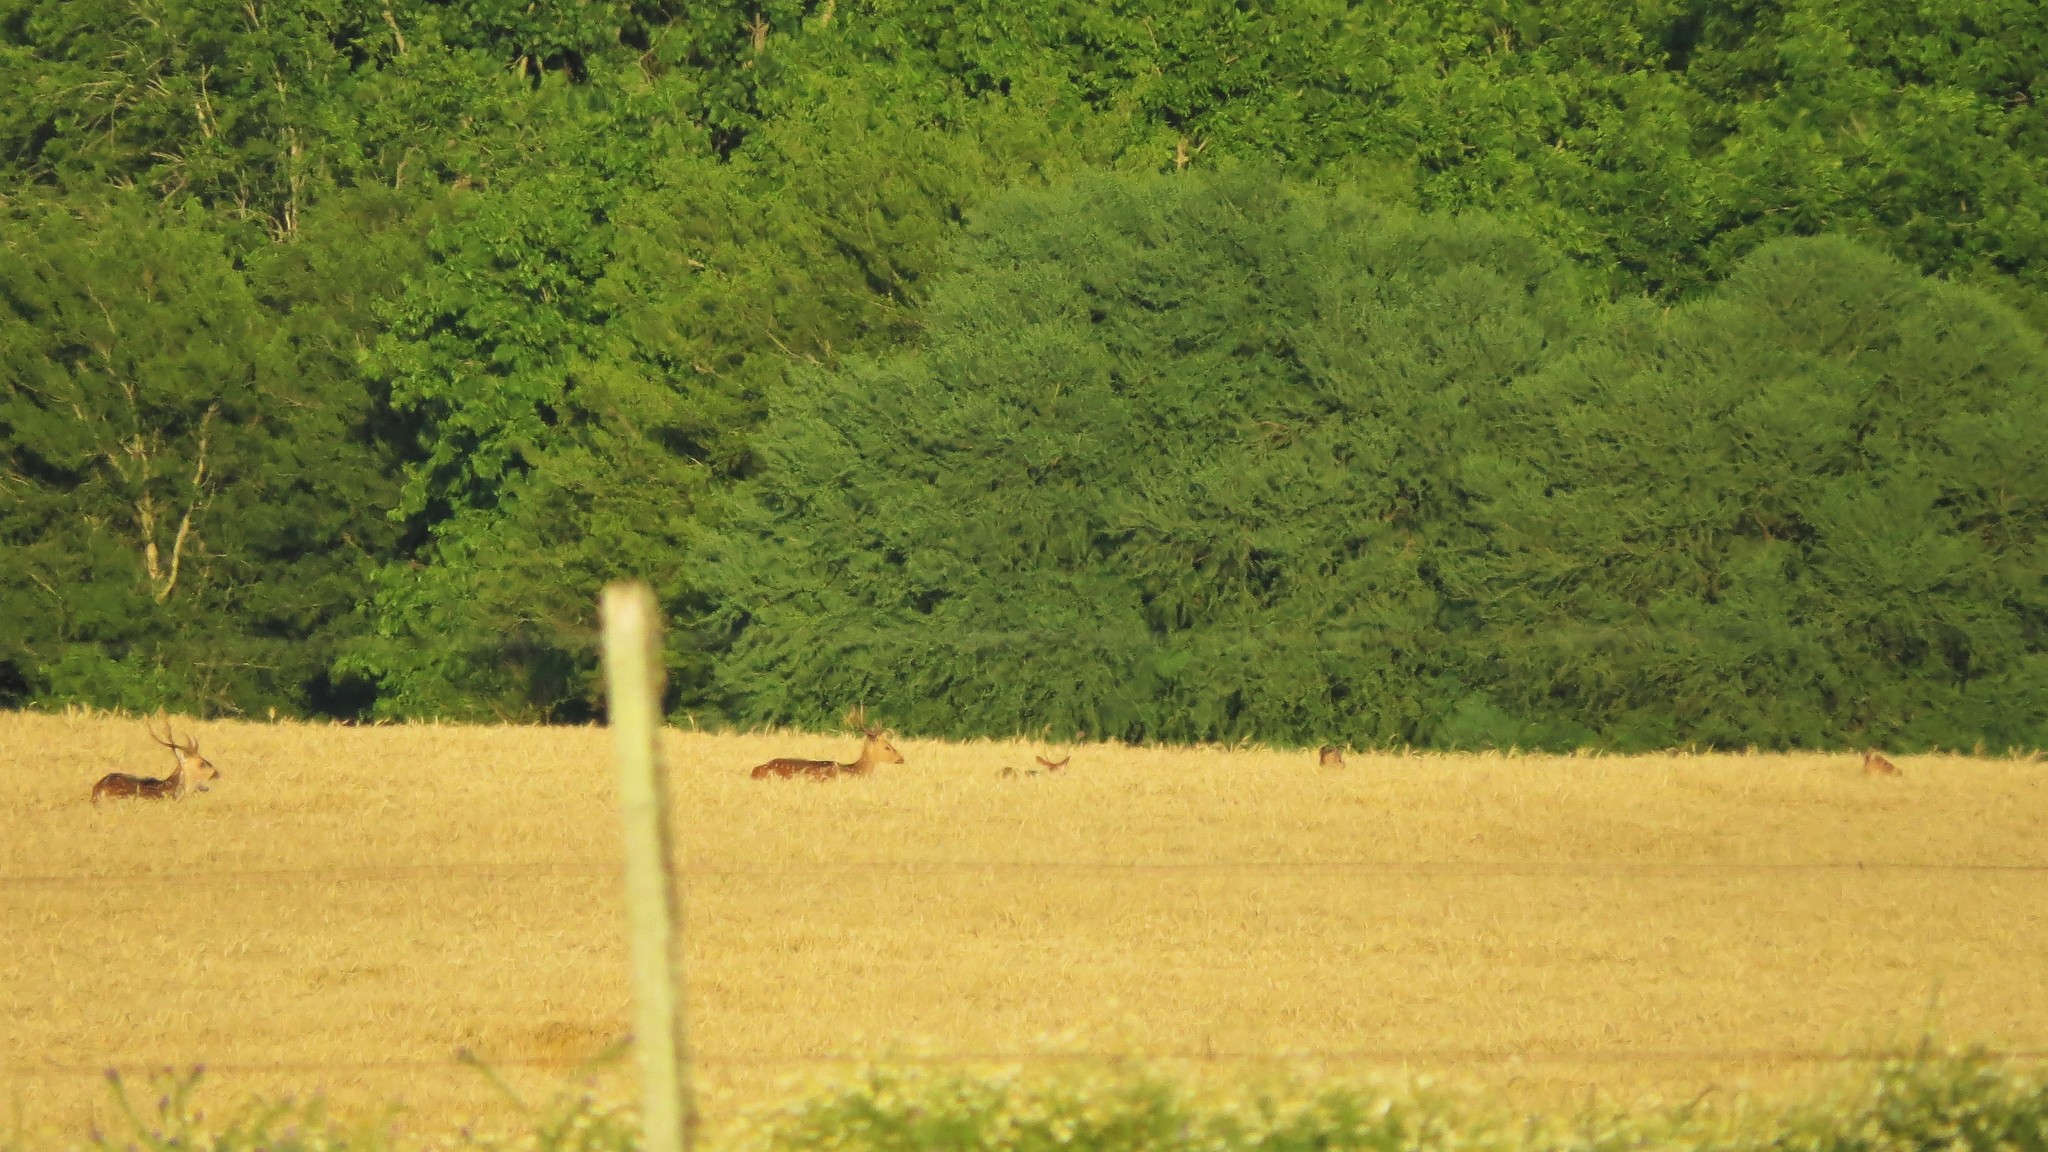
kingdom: Animalia
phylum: Chordata
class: Mammalia
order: Artiodactyla
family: Cervidae
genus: Axis
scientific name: Axis axis
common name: Chital
